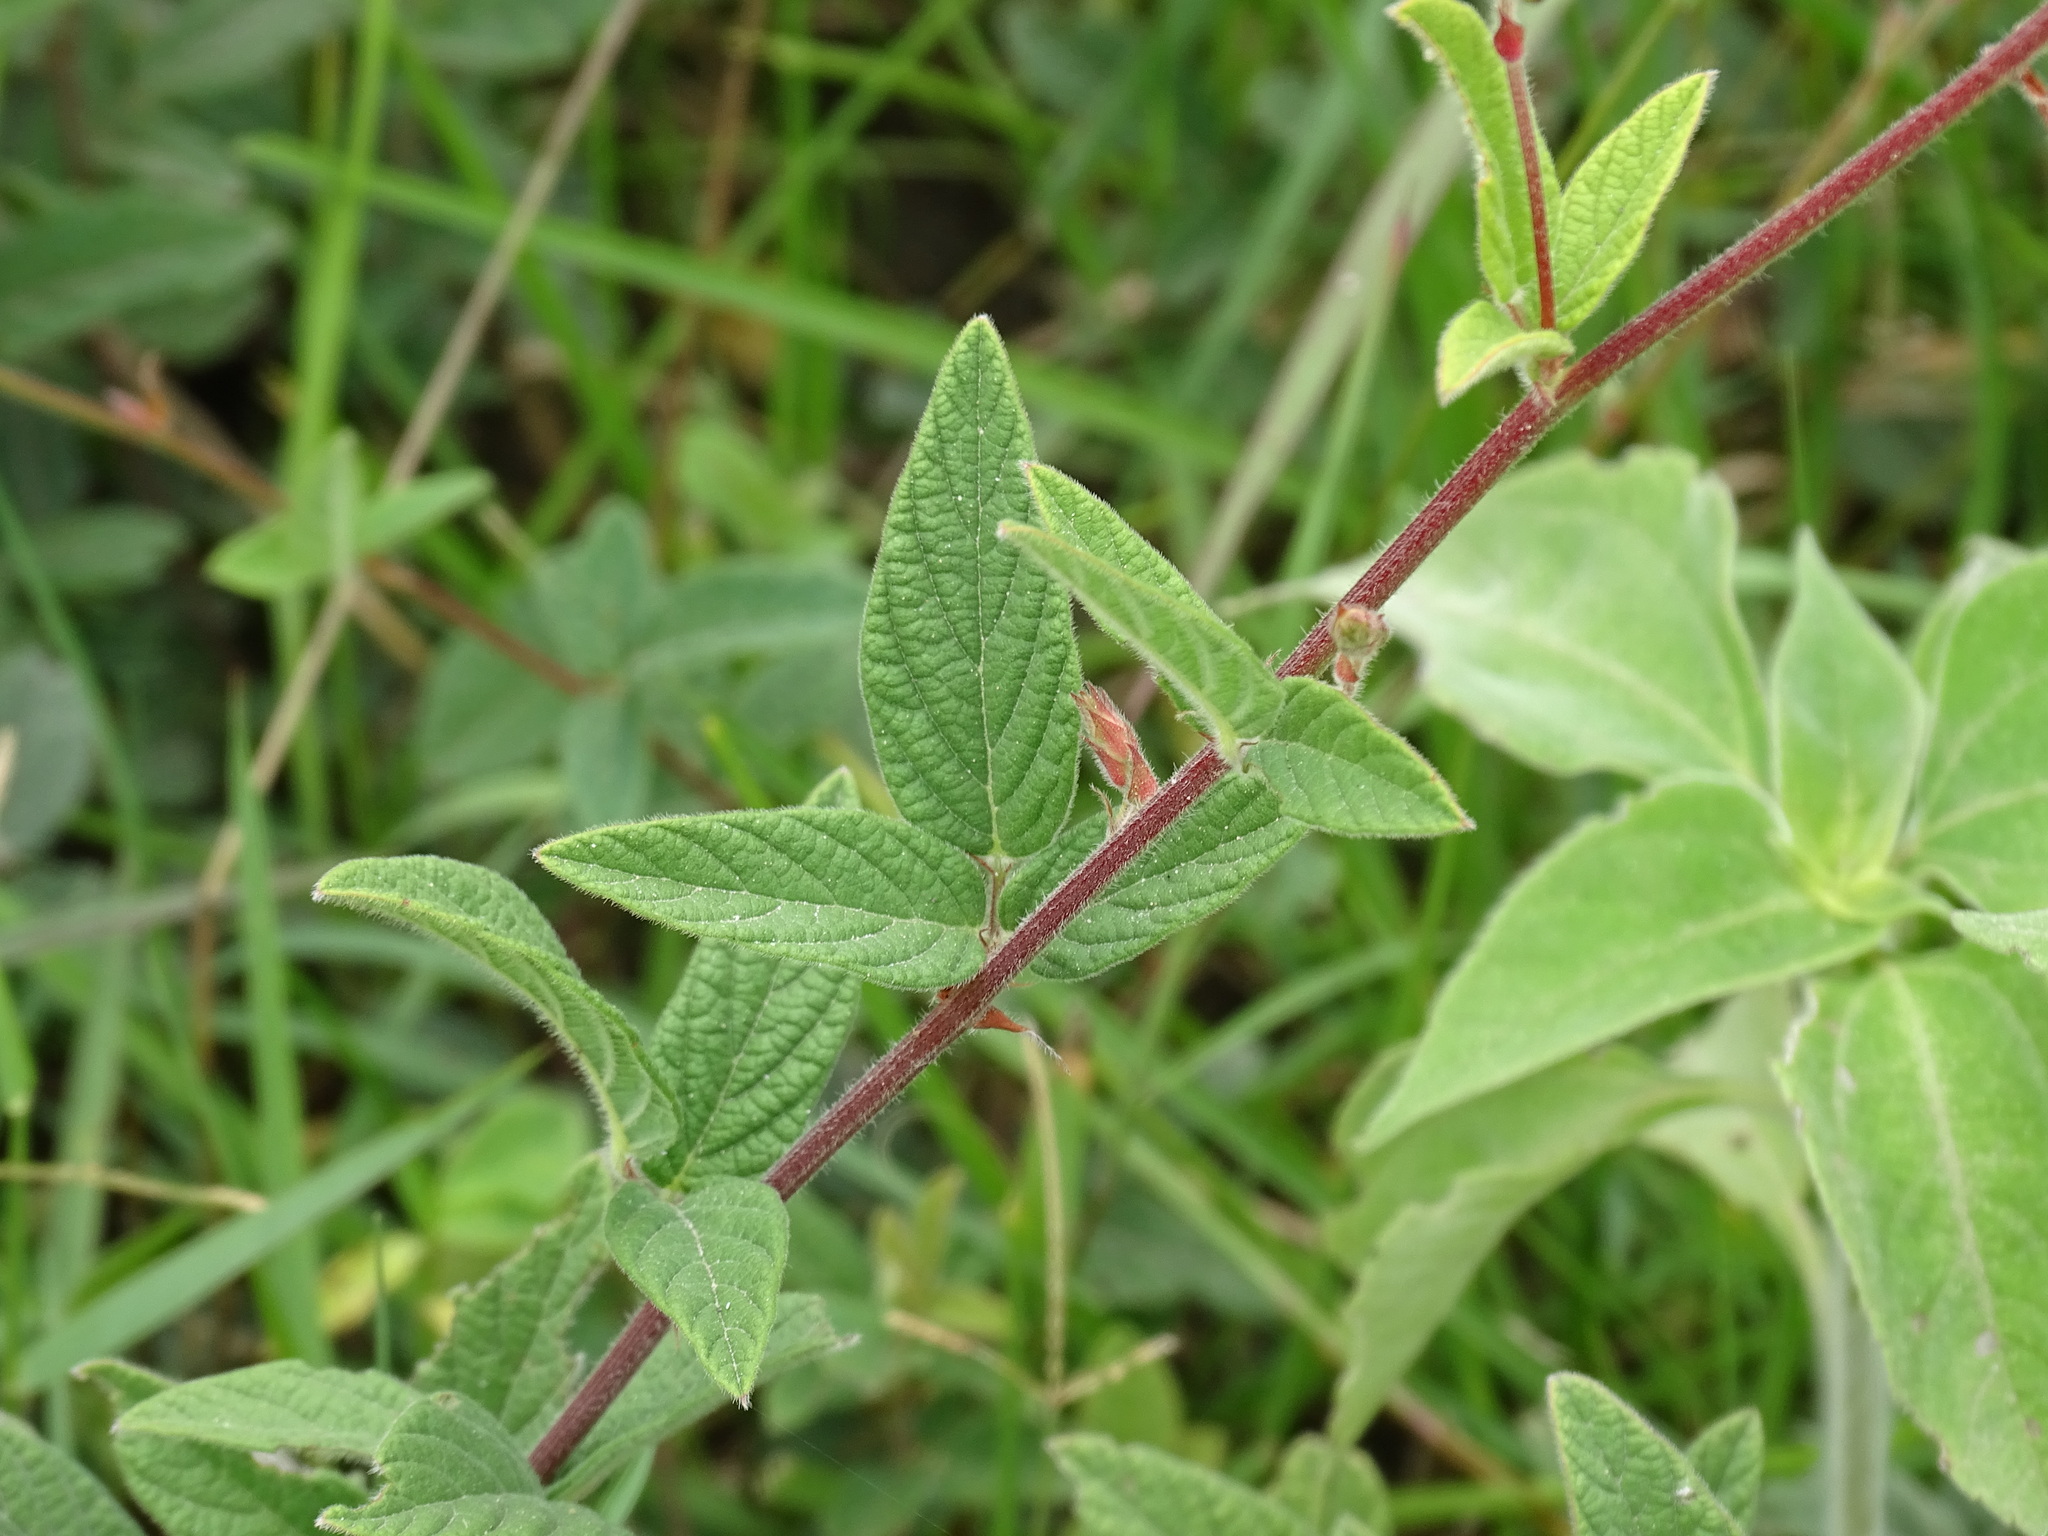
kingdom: Plantae
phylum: Tracheophyta
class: Magnoliopsida
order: Fabales
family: Fabaceae
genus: Desmodium
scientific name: Desmodium subsessile
